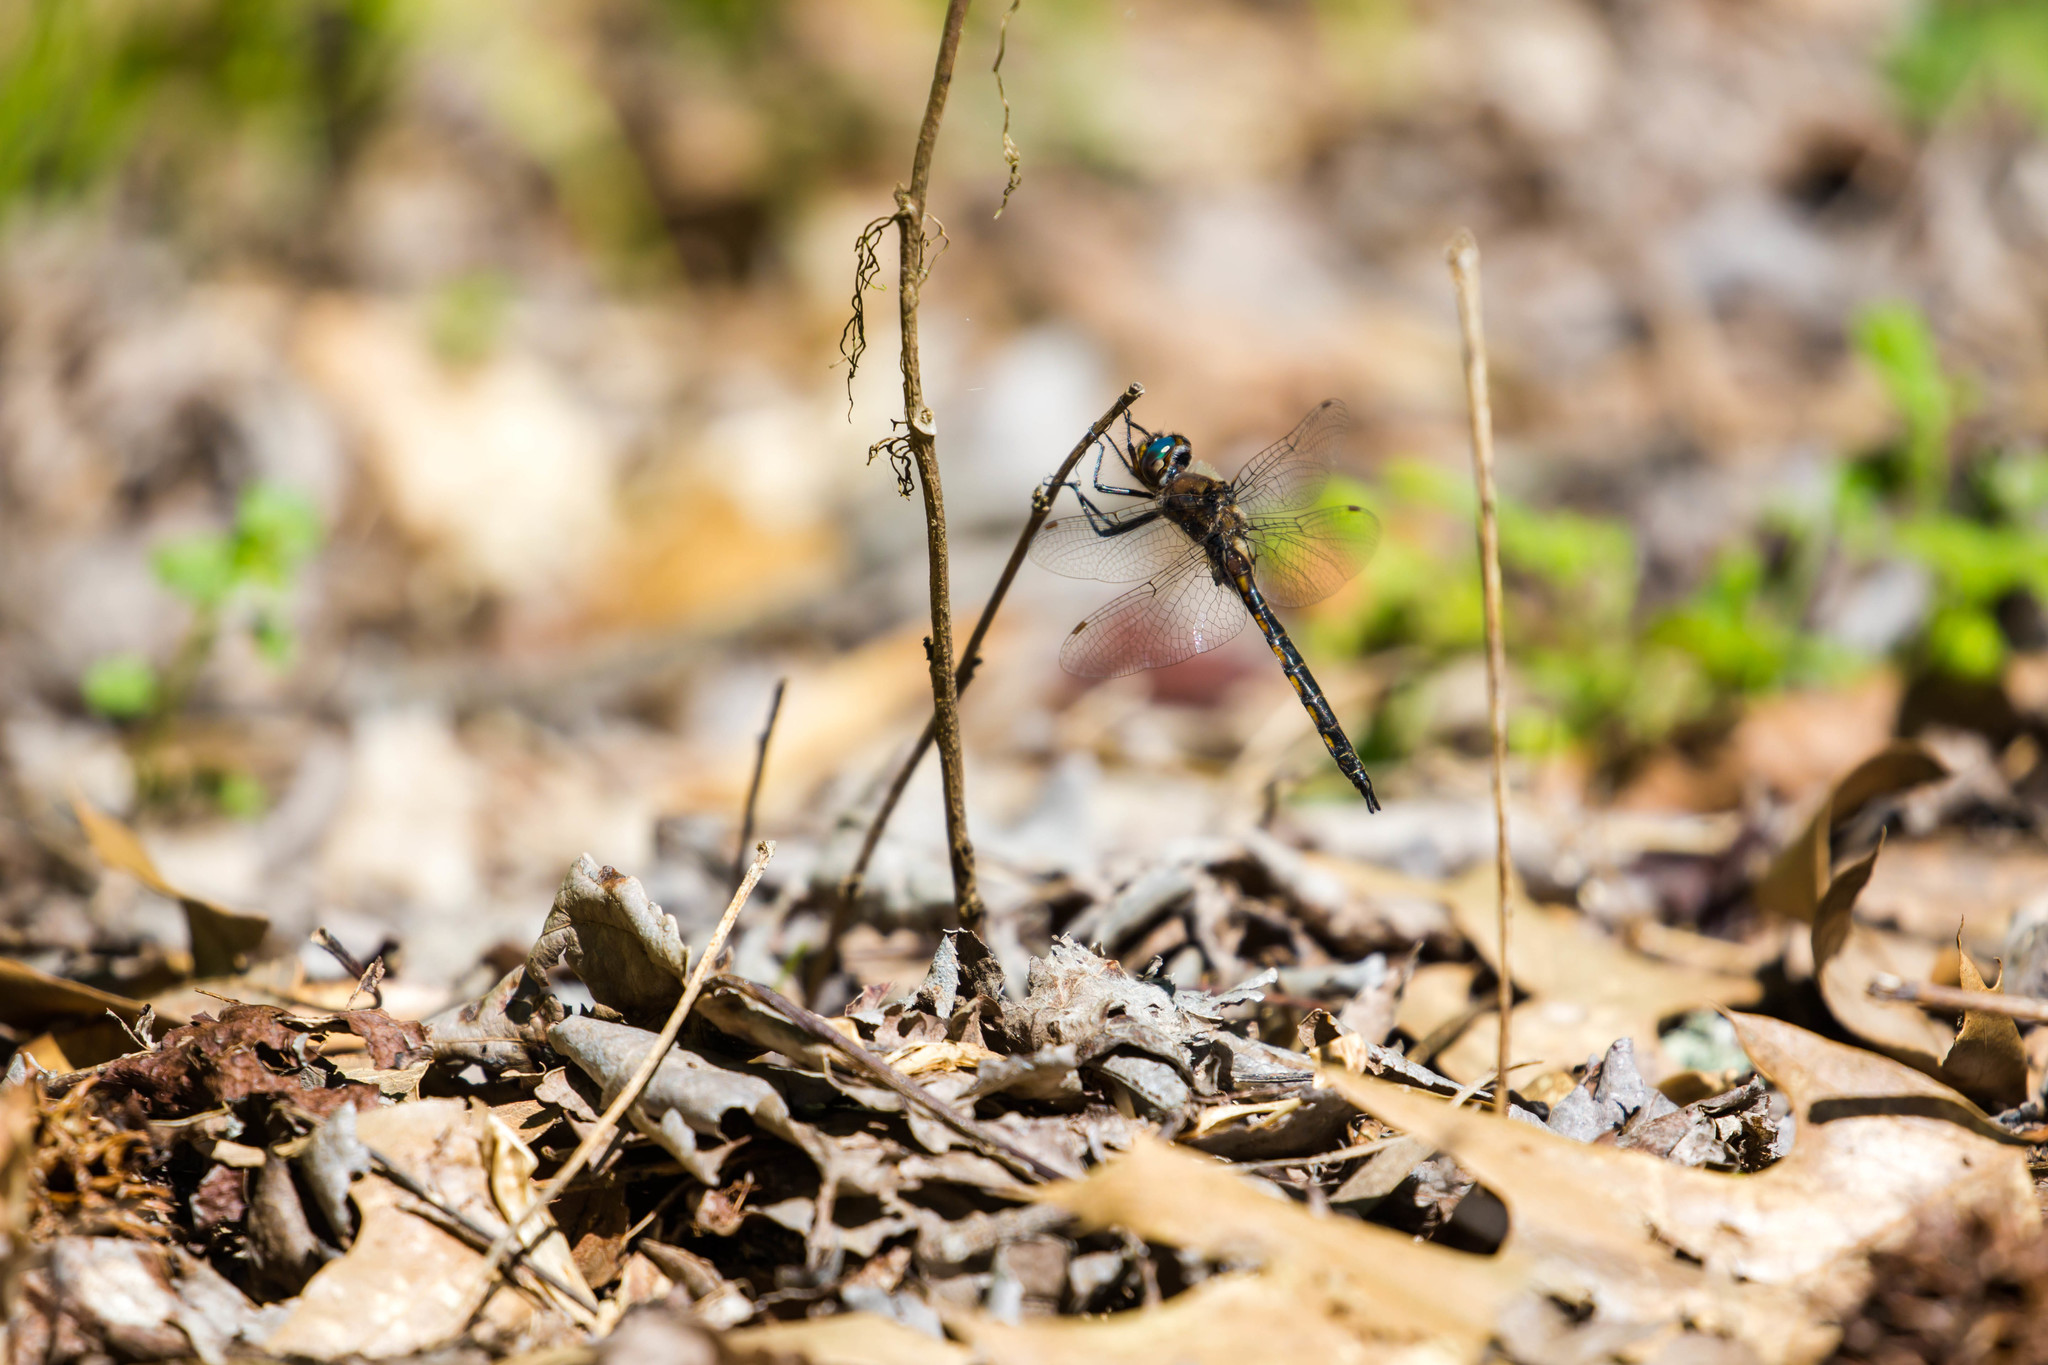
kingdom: Animalia
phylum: Arthropoda
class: Insecta
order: Odonata
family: Corduliidae
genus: Epitheca
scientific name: Epitheca costalis
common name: Slender baskettail
